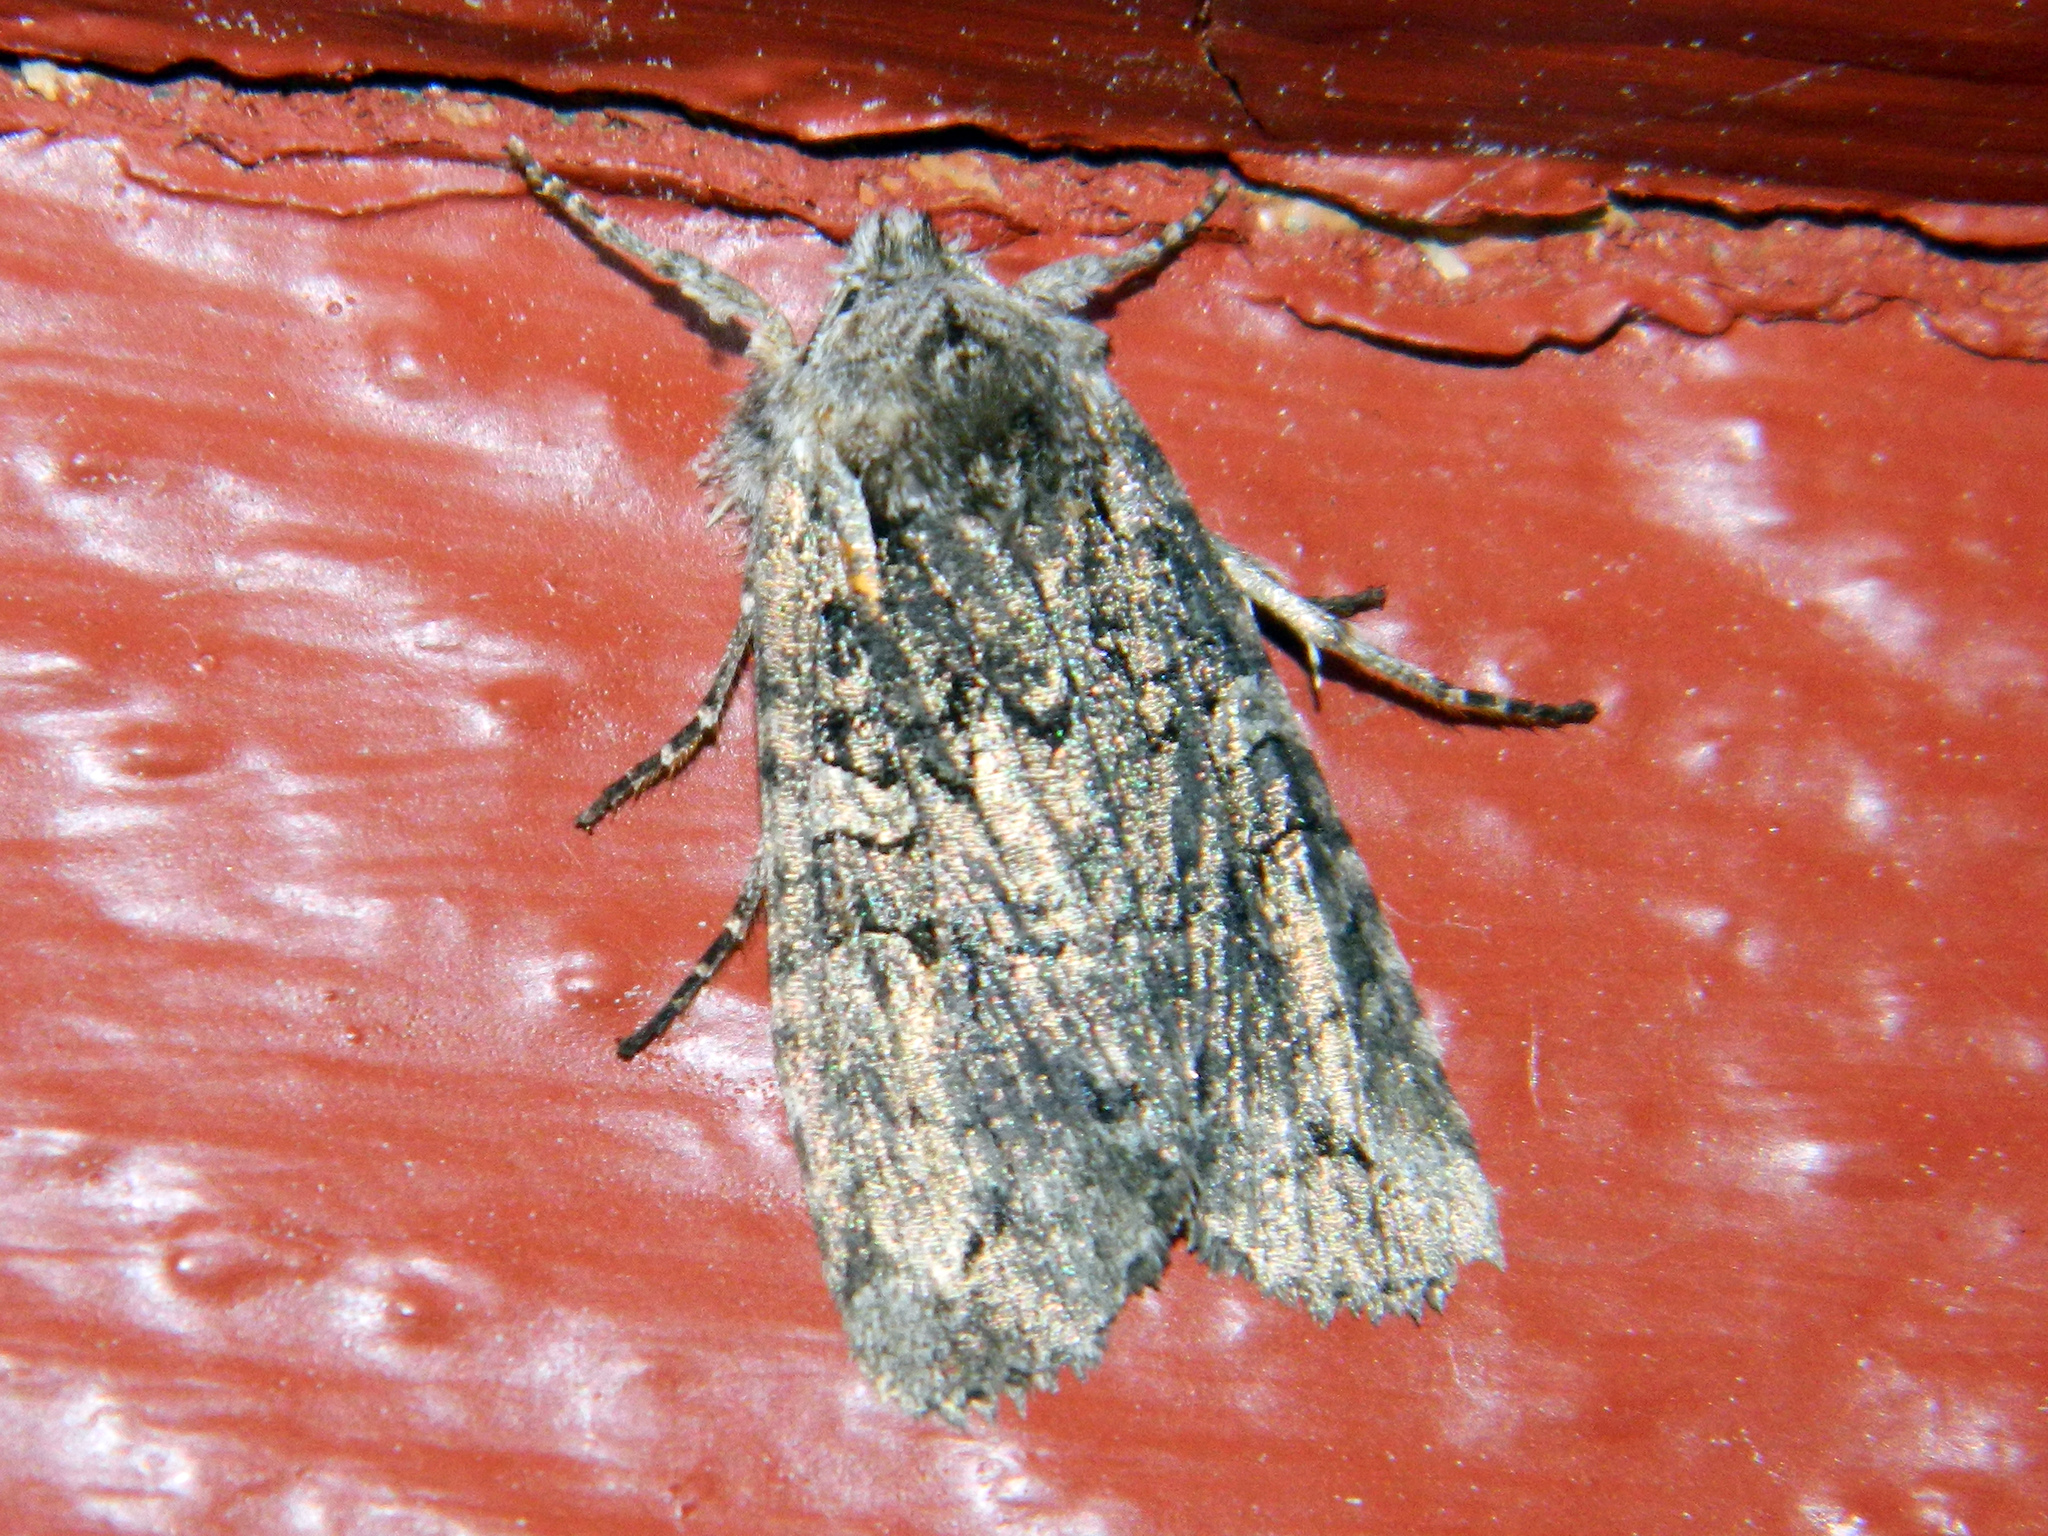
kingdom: Animalia
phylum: Arthropoda
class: Insecta
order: Lepidoptera
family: Noctuidae
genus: Lithophane
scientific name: Lithophane baileyi
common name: Bailey's pinion moth
